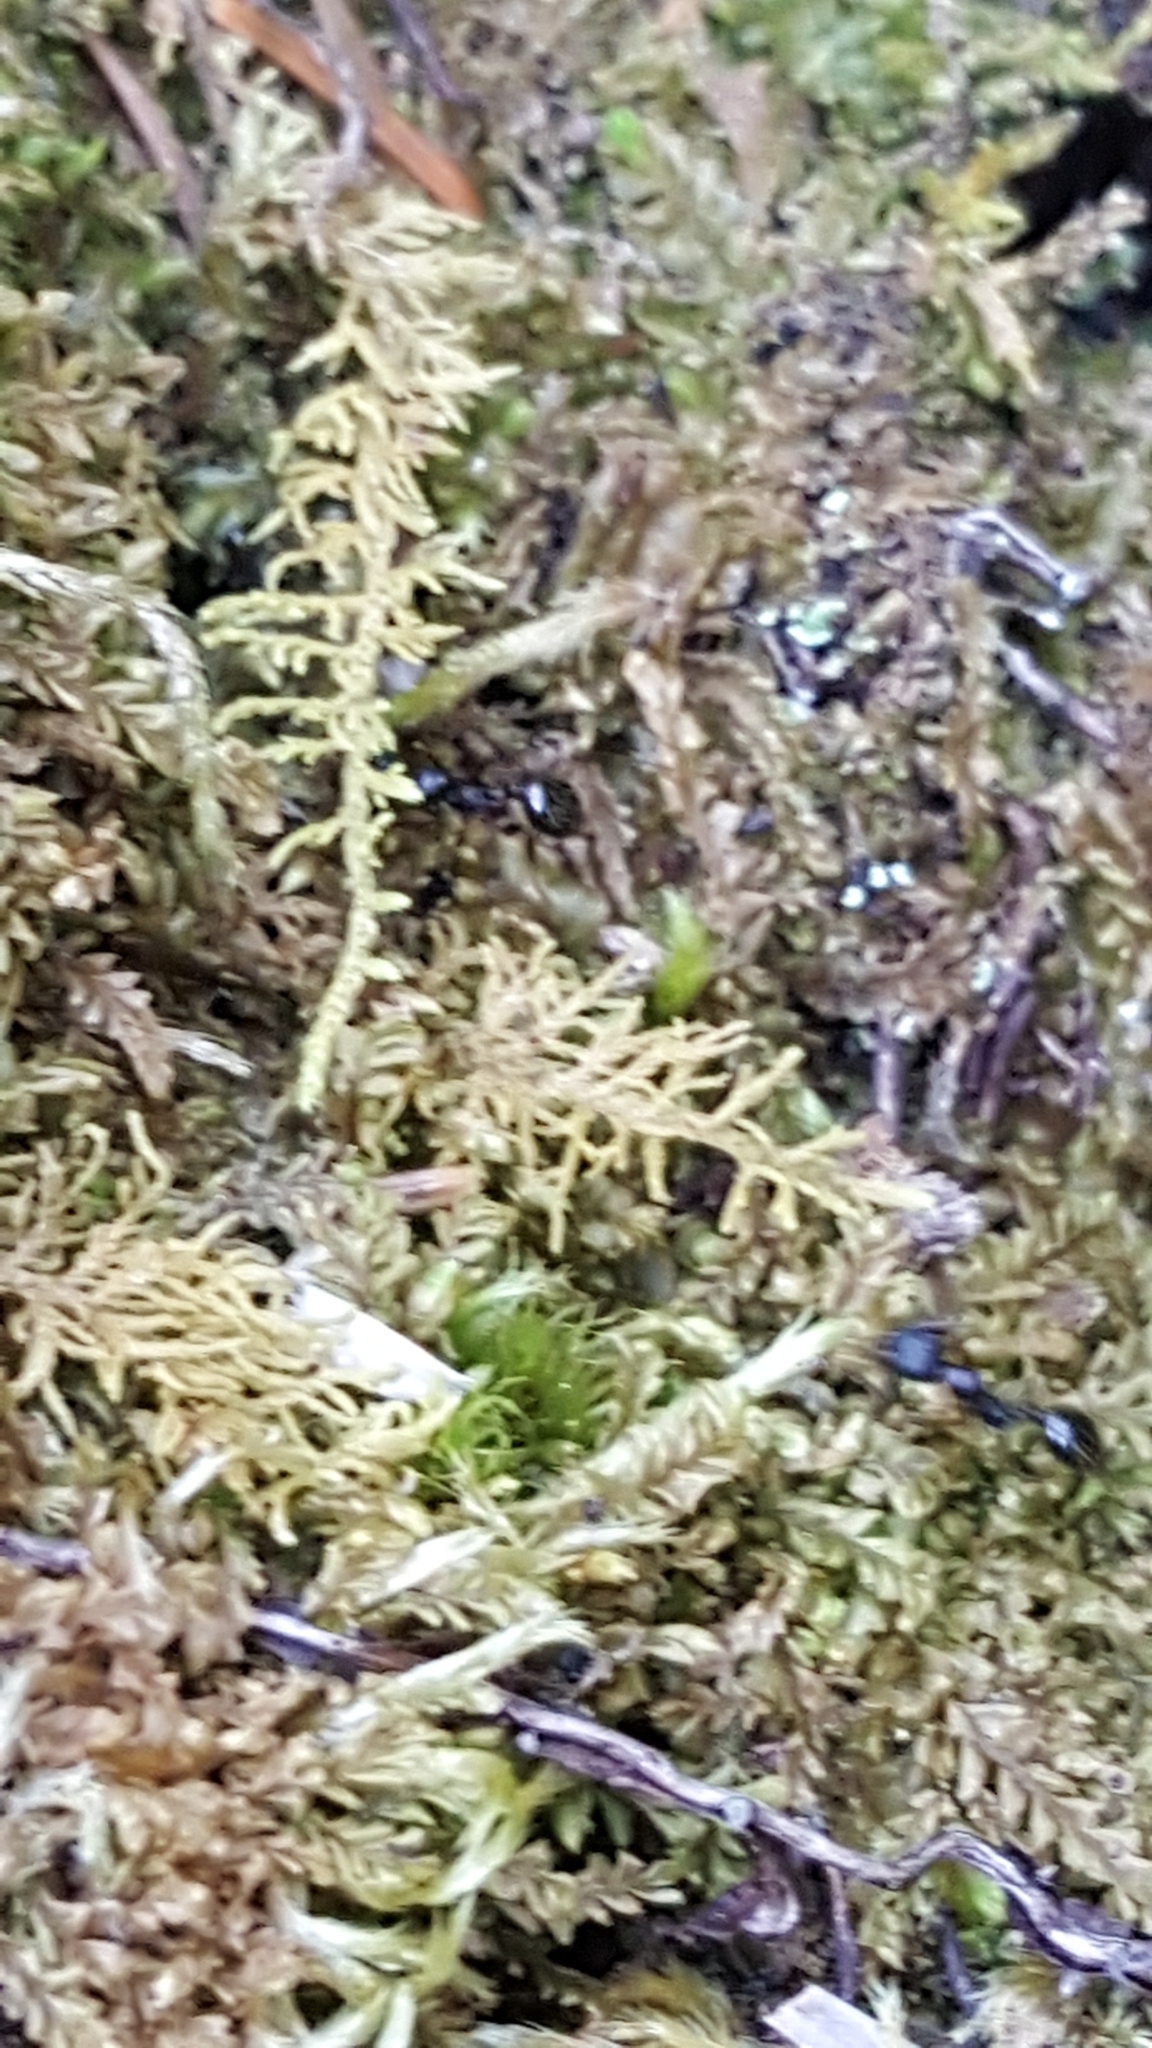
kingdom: Animalia
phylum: Arthropoda
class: Insecta
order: Hymenoptera
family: Formicidae
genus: Aphaenogaster
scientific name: Aphaenogaster
